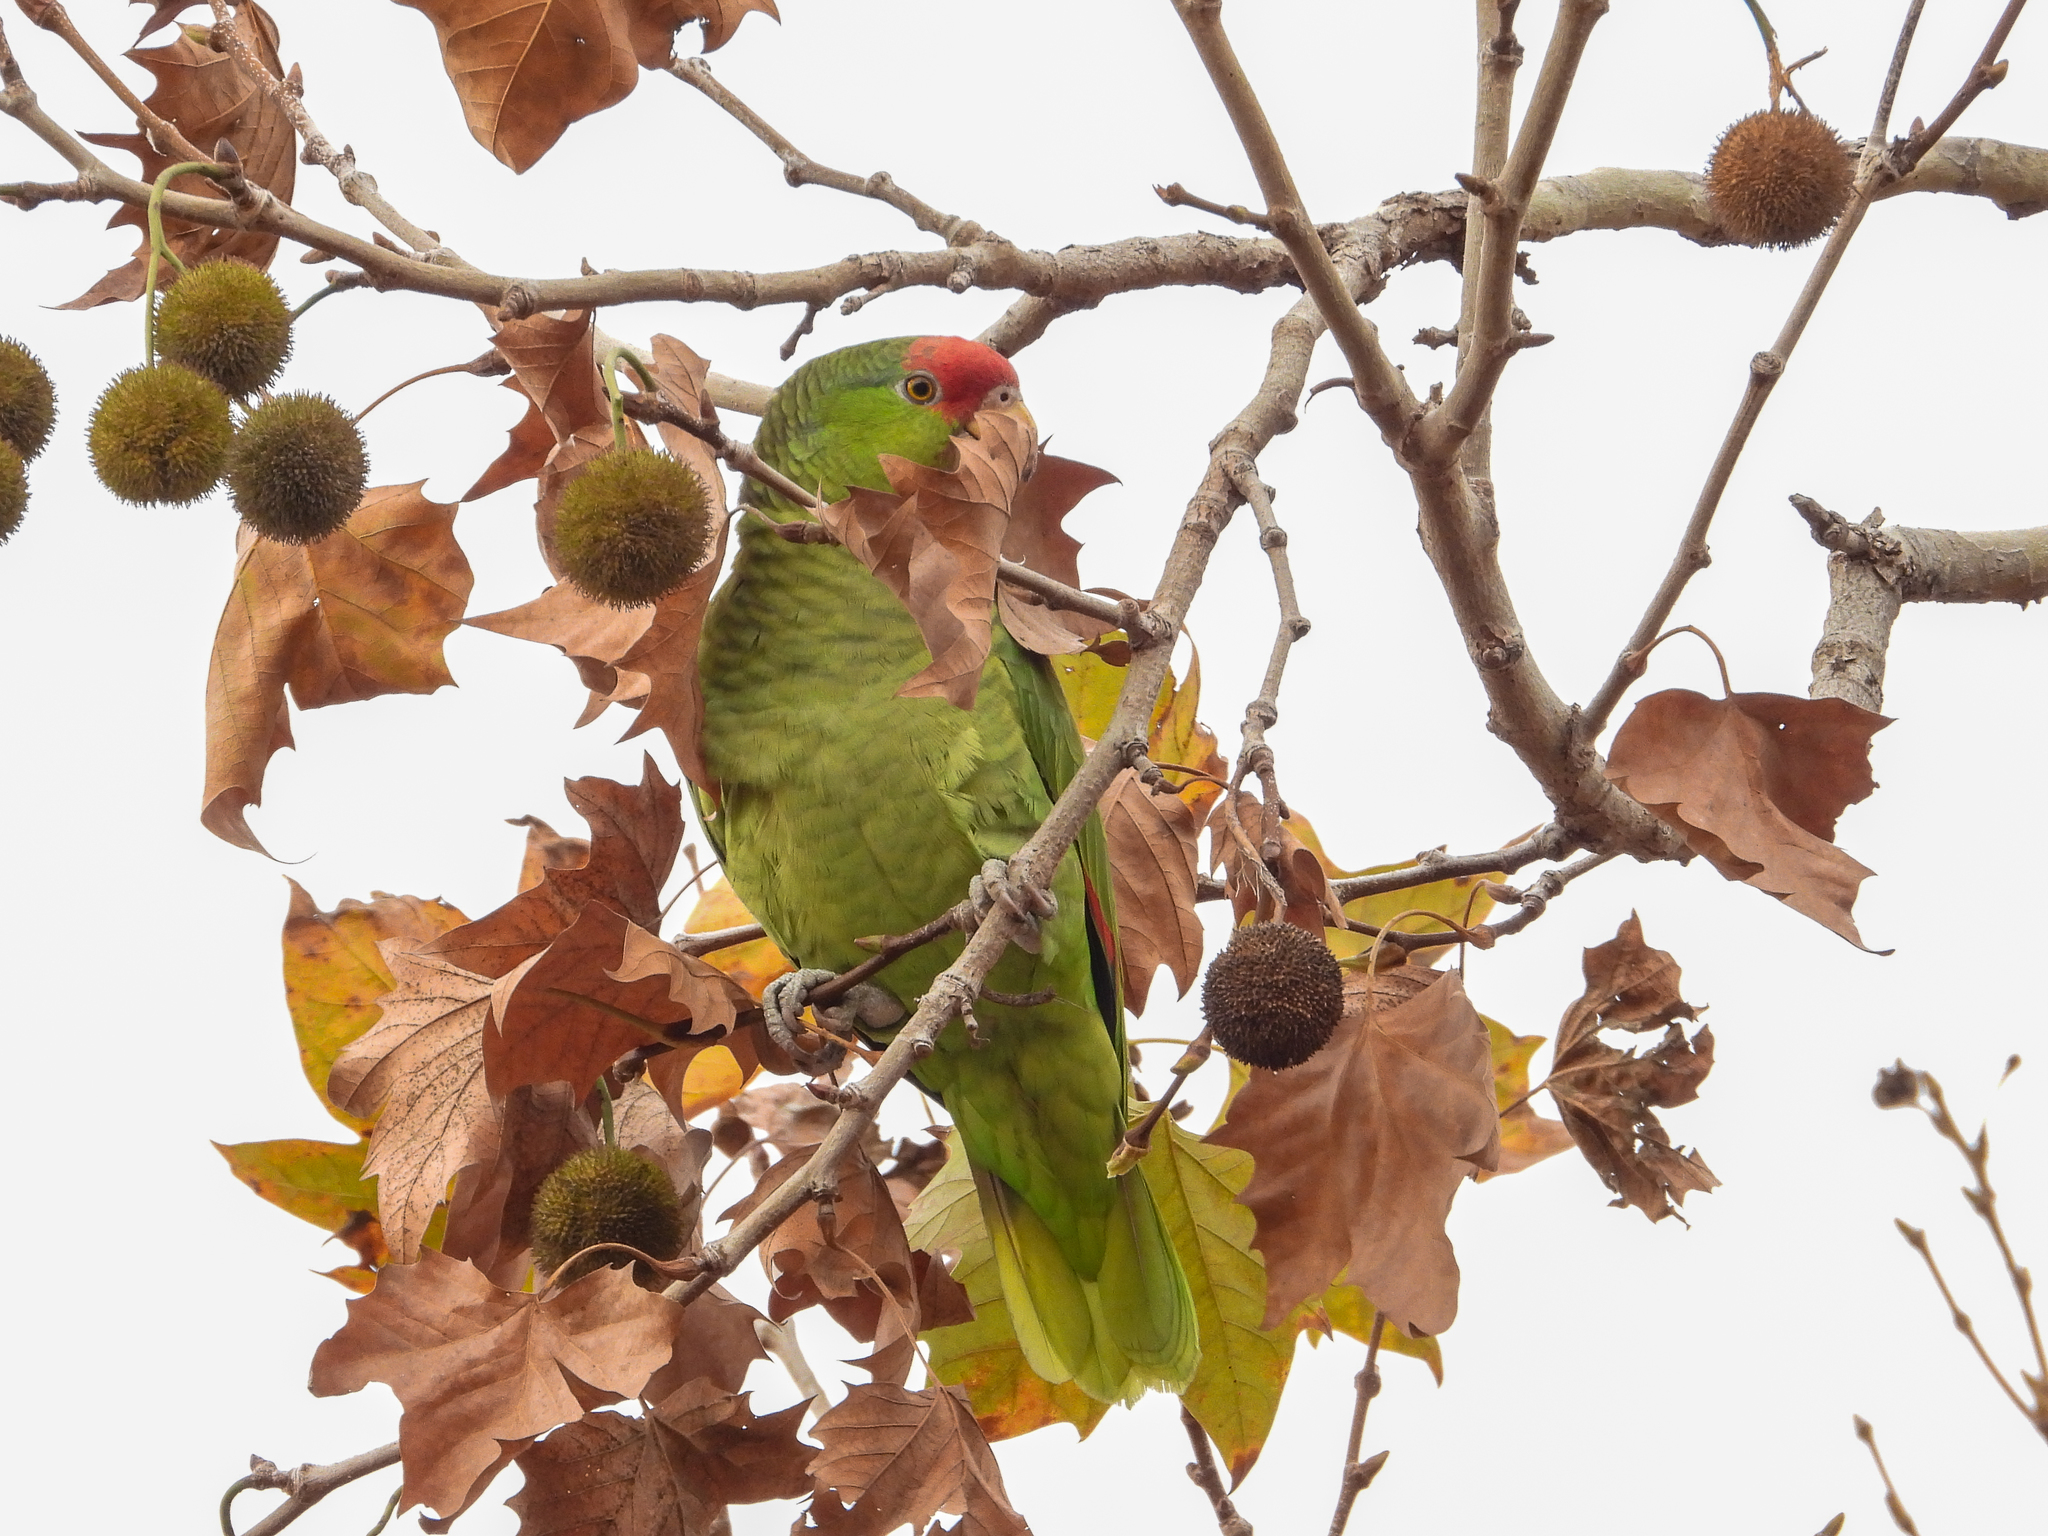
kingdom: Animalia
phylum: Chordata
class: Aves
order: Psittaciformes
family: Psittacidae
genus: Amazona
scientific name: Amazona viridigenalis
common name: Red-crowned amazon
